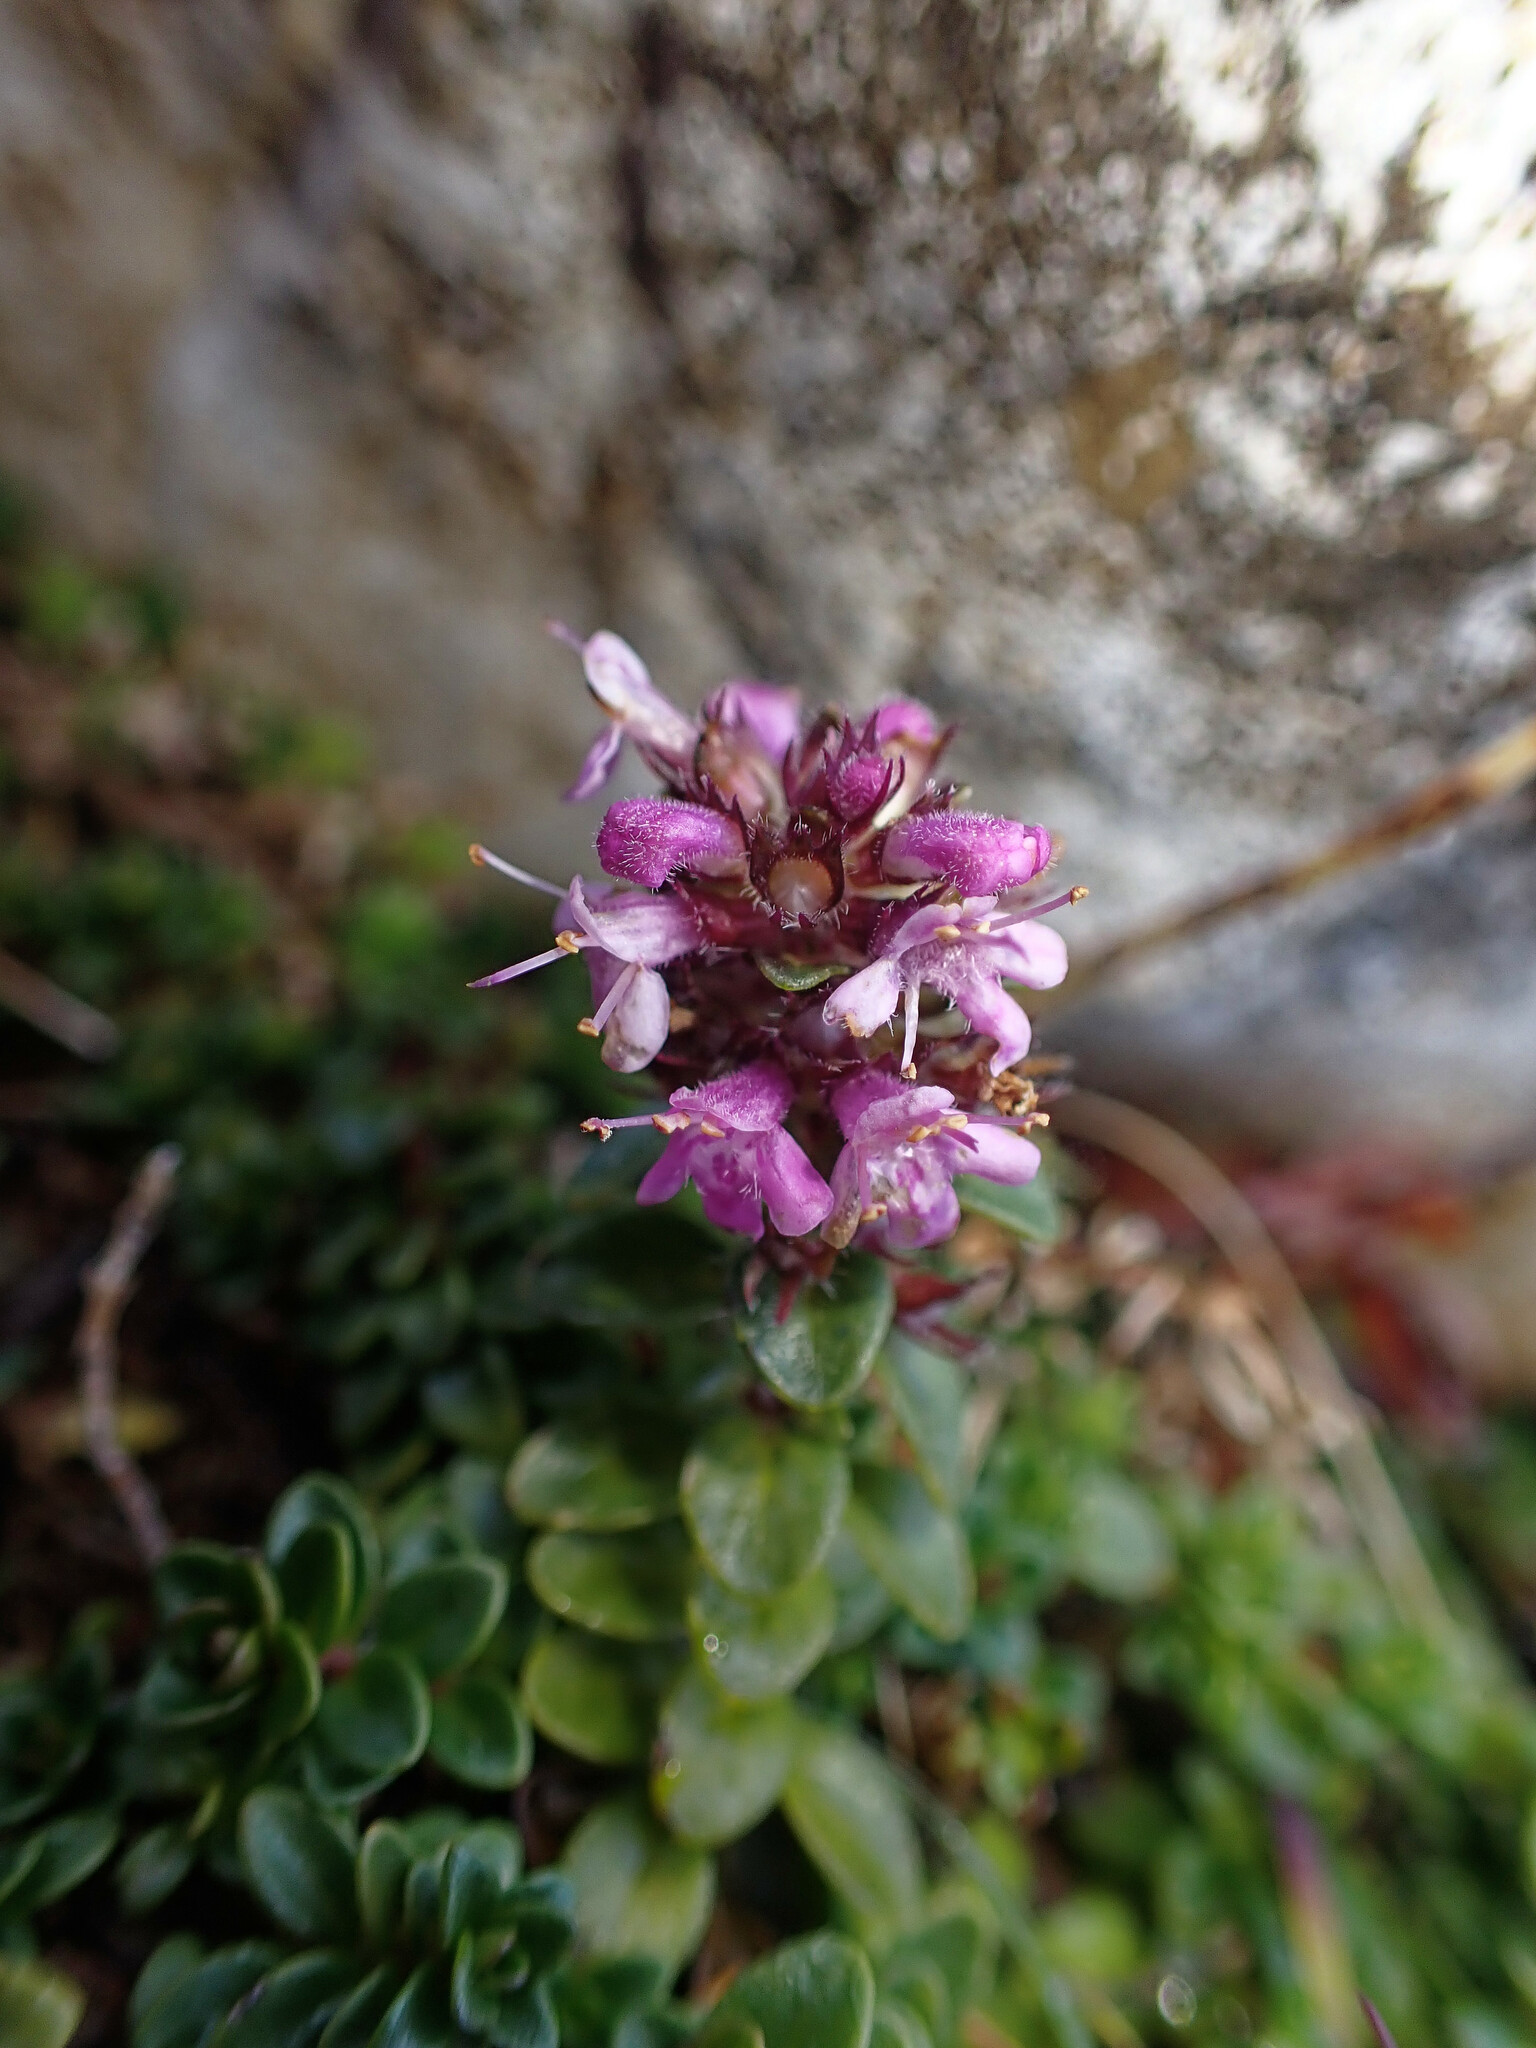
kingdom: Plantae
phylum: Tracheophyta
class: Magnoliopsida
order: Lamiales
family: Lamiaceae
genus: Thymus
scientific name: Thymus praecox
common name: Wild thyme
